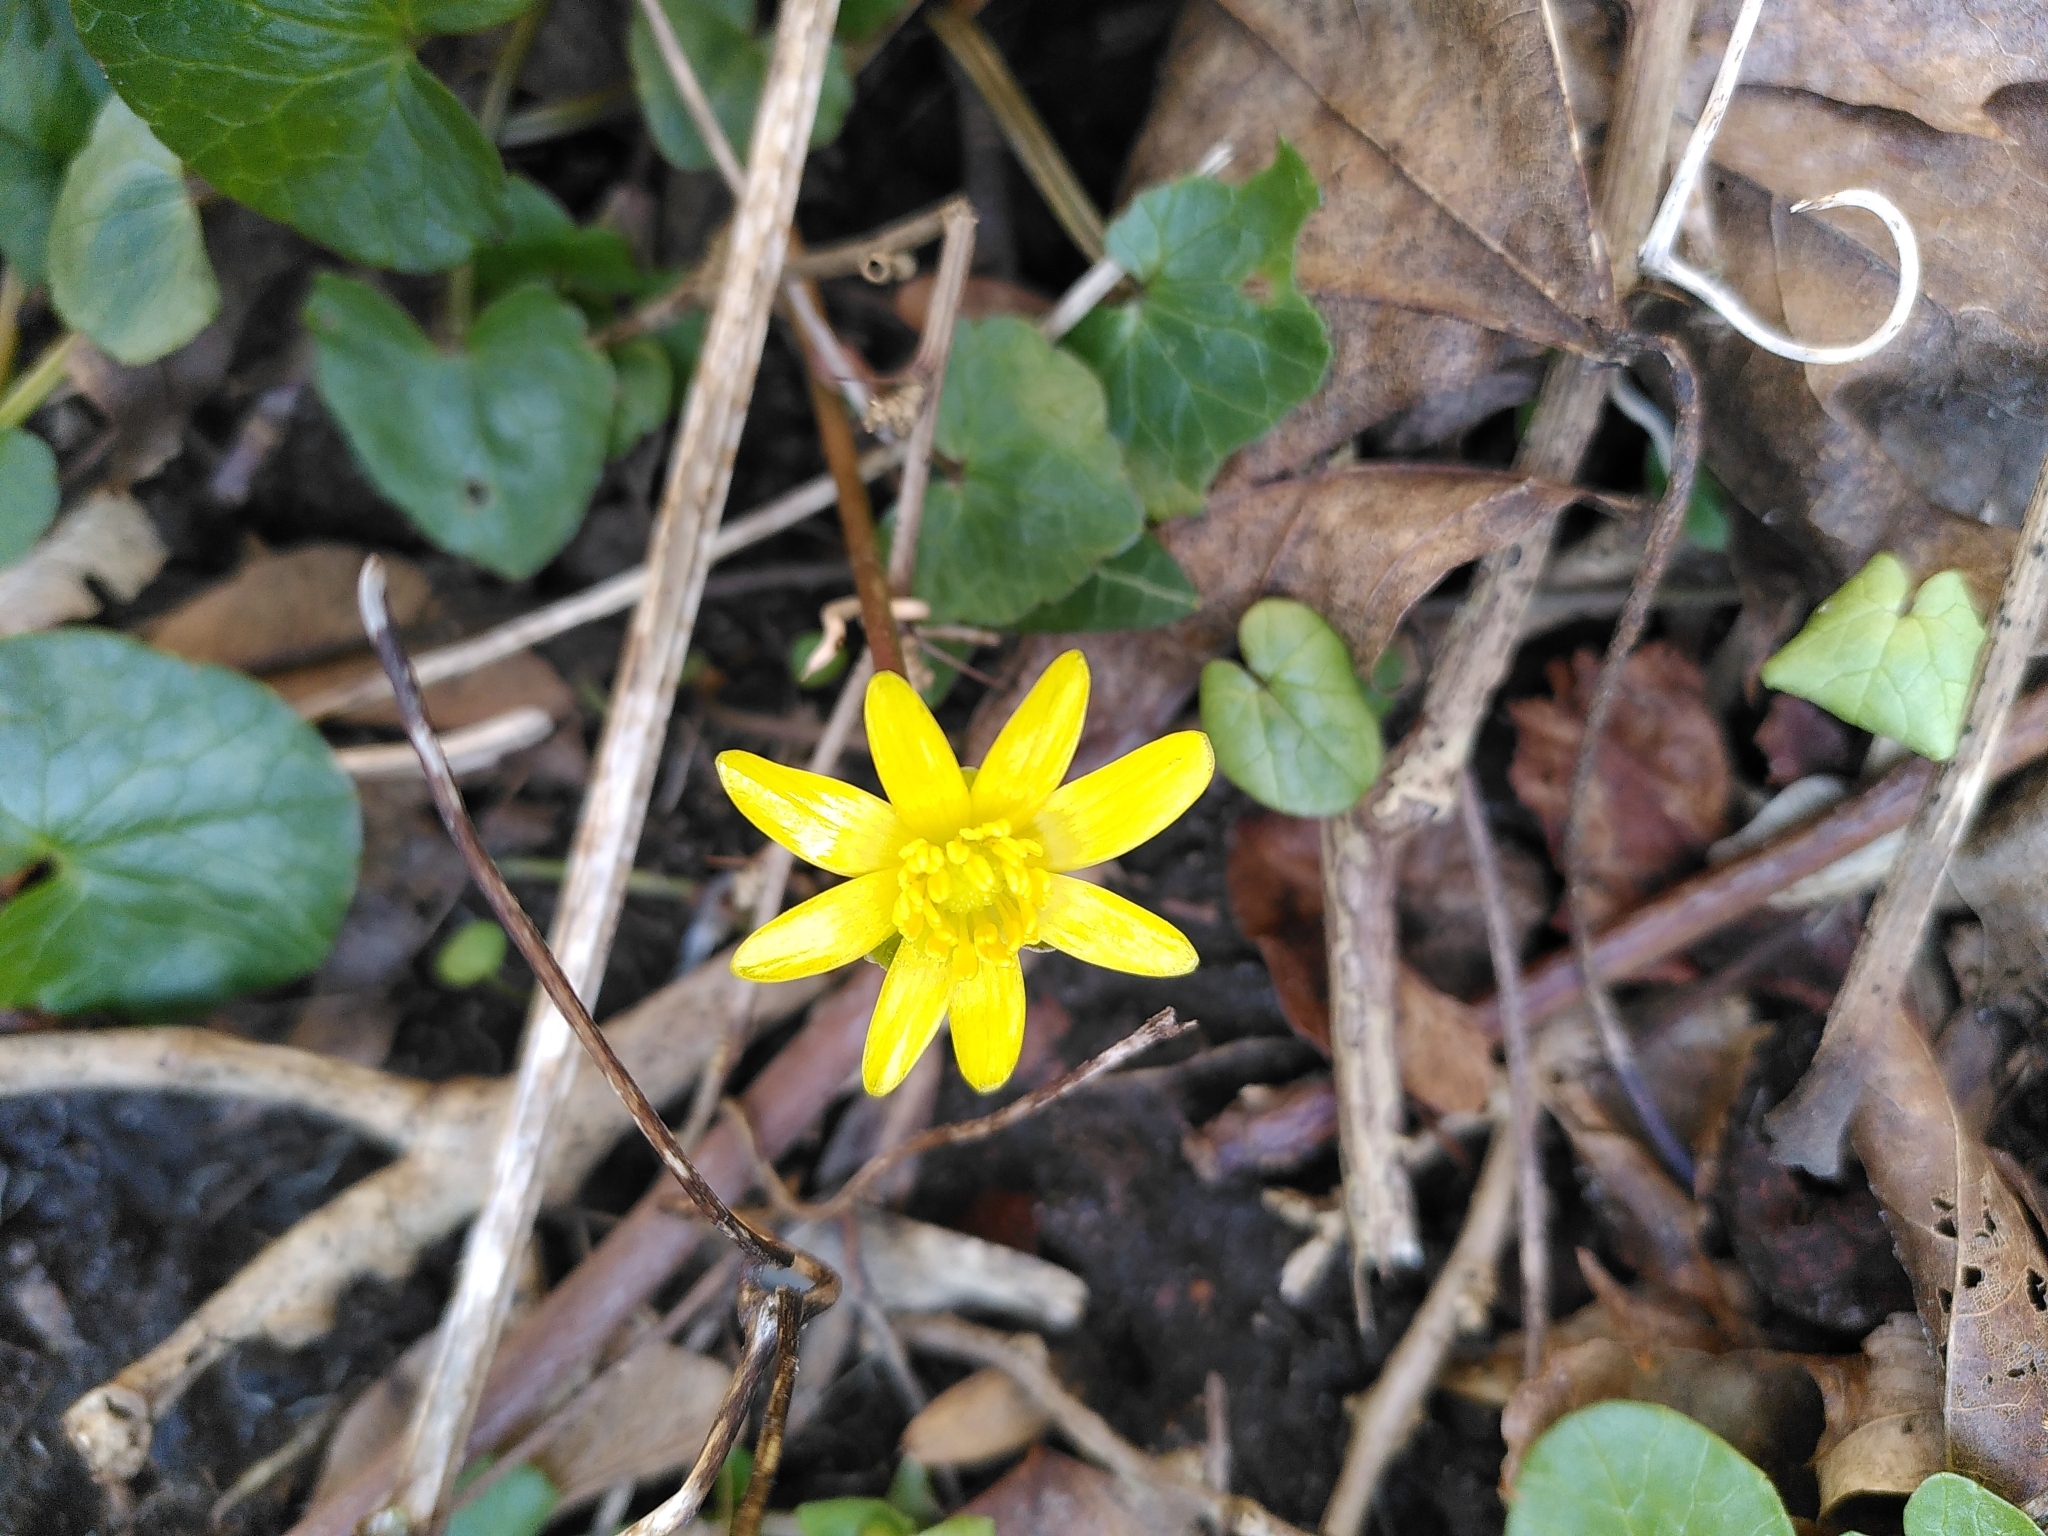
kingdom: Plantae
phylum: Tracheophyta
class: Magnoliopsida
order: Ranunculales
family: Ranunculaceae
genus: Ficaria
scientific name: Ficaria verna
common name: Lesser celandine
